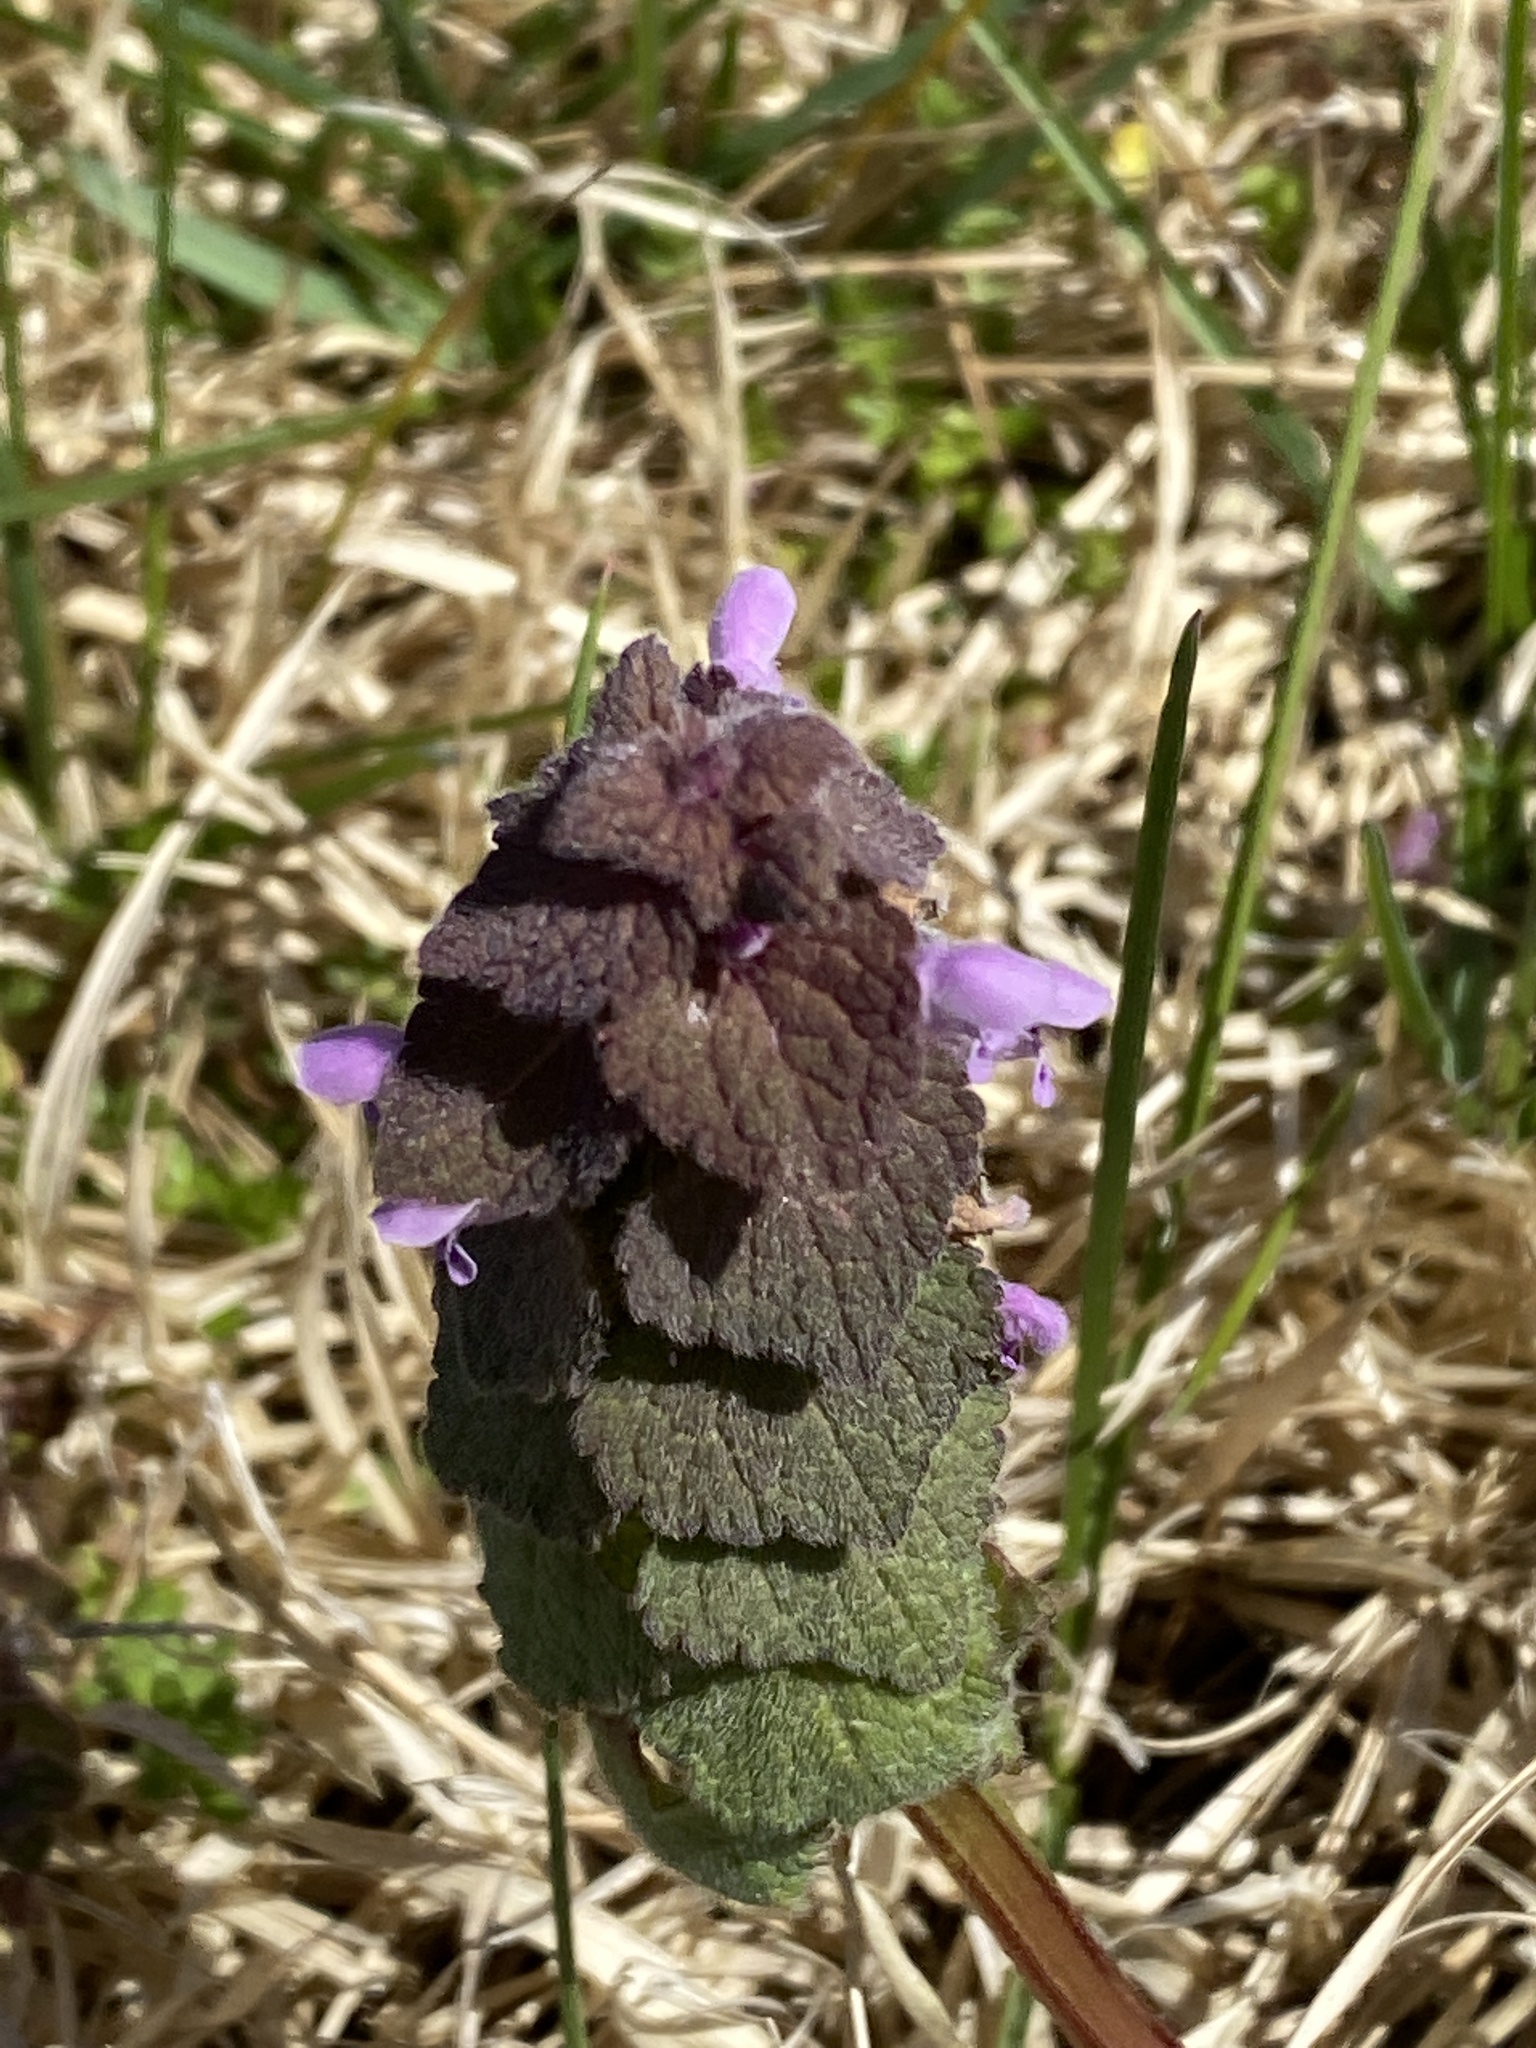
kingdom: Plantae
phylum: Tracheophyta
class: Magnoliopsida
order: Lamiales
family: Lamiaceae
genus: Lamium
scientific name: Lamium purpureum
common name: Red dead-nettle
